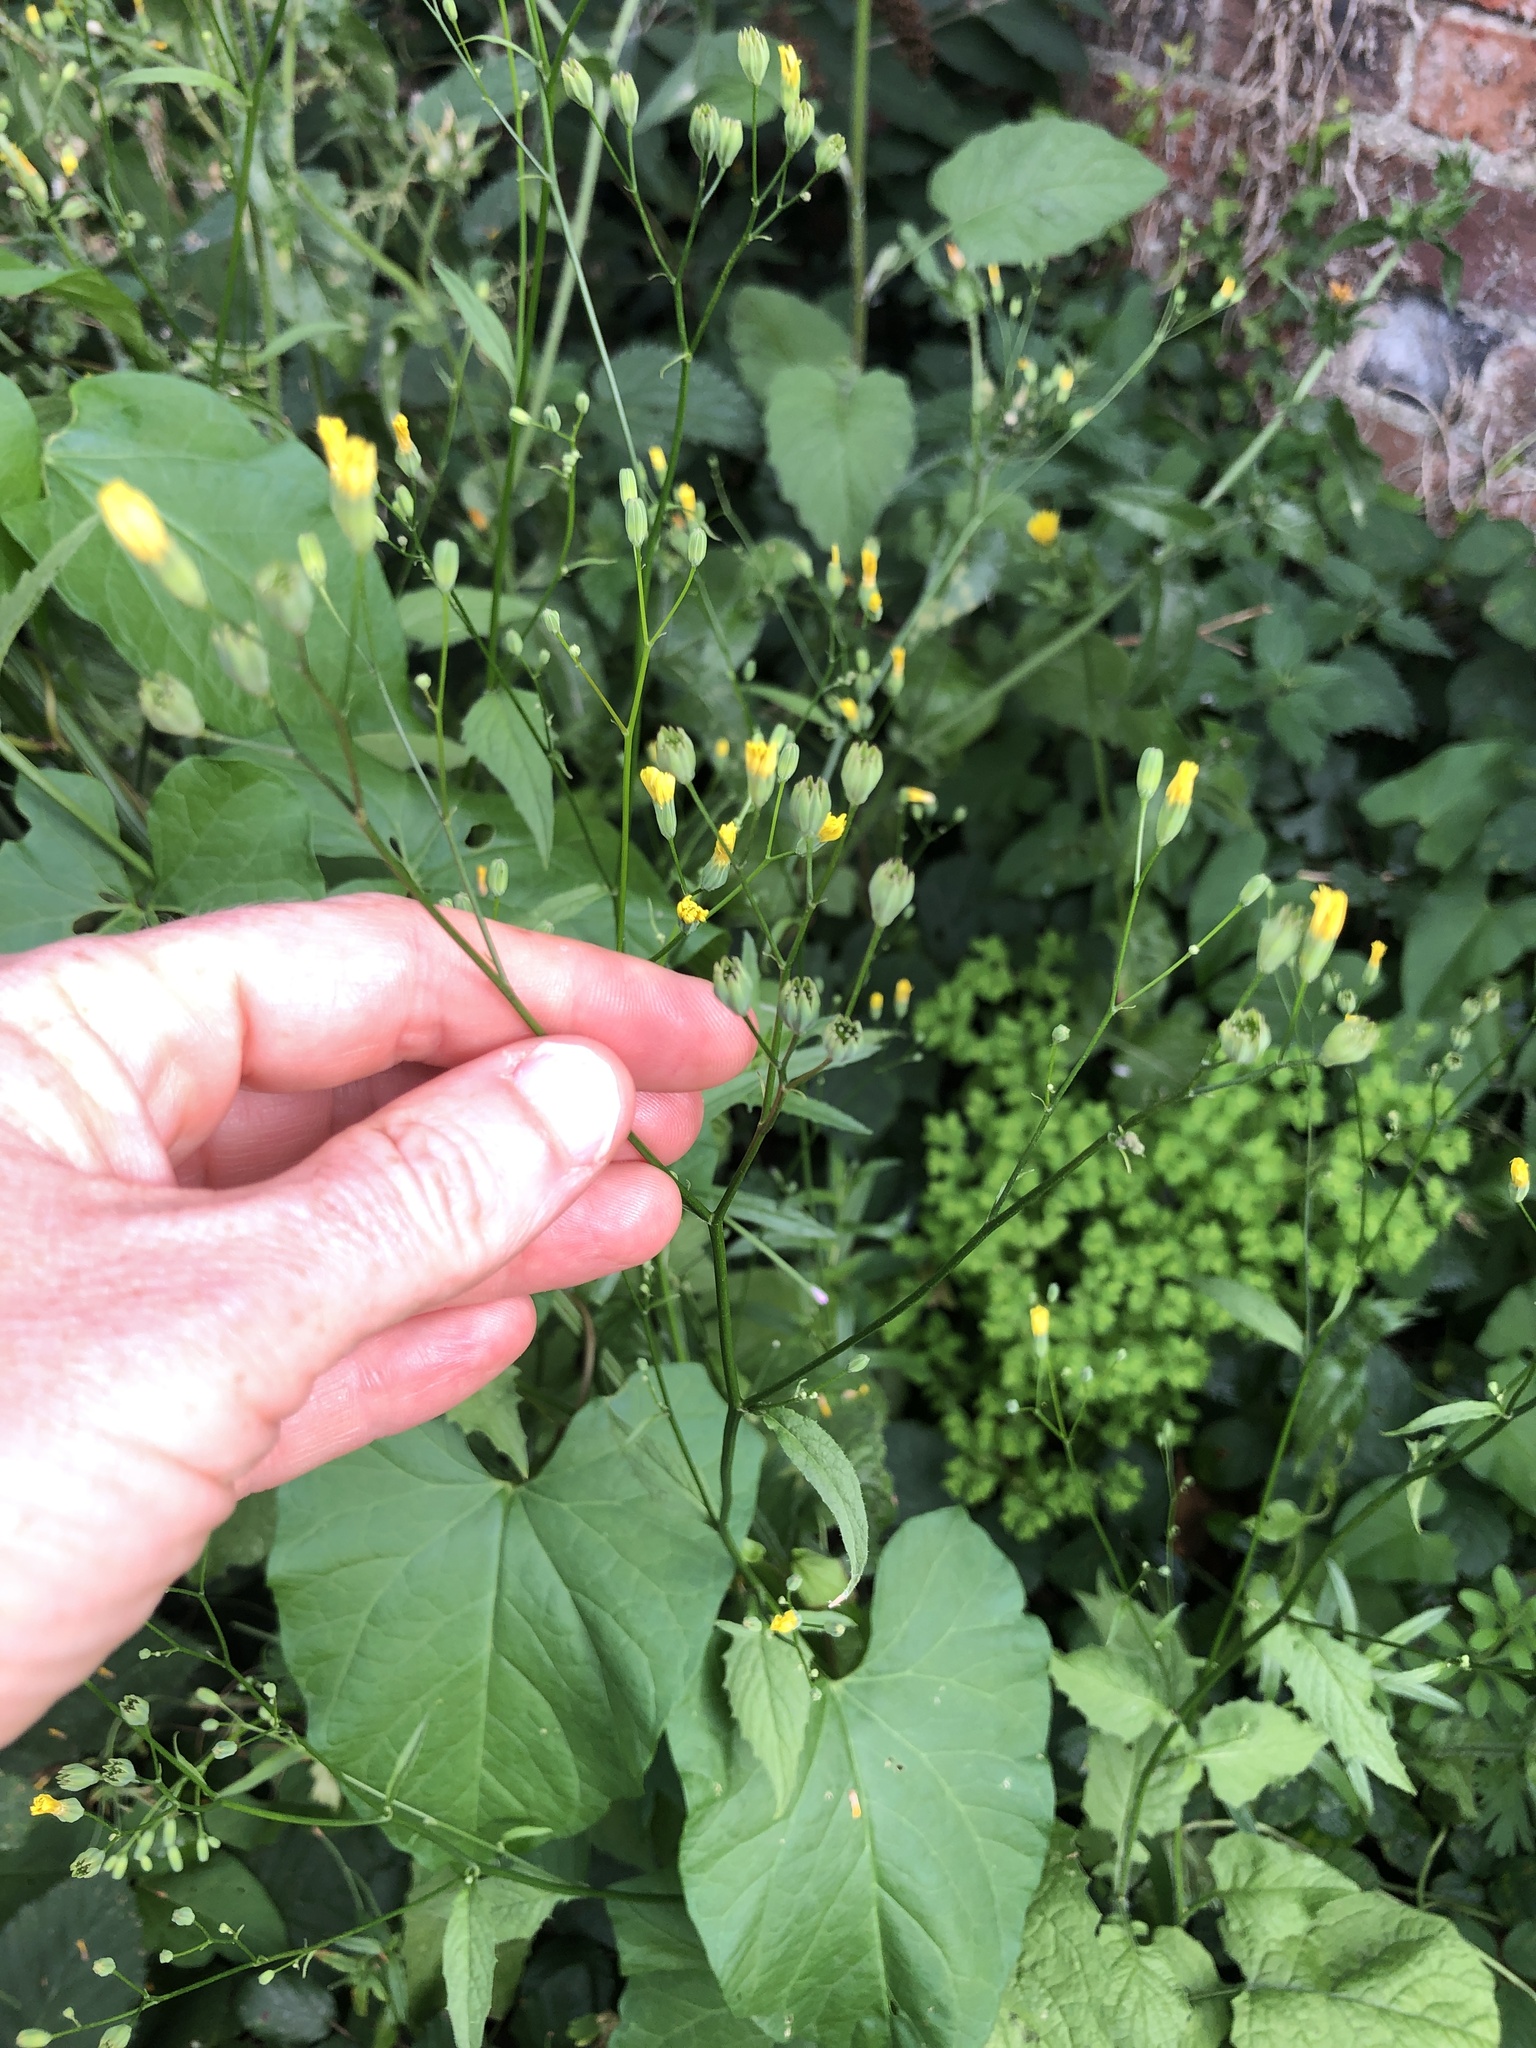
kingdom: Plantae
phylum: Tracheophyta
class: Magnoliopsida
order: Asterales
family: Asteraceae
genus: Lapsana
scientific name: Lapsana communis
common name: Nipplewort
